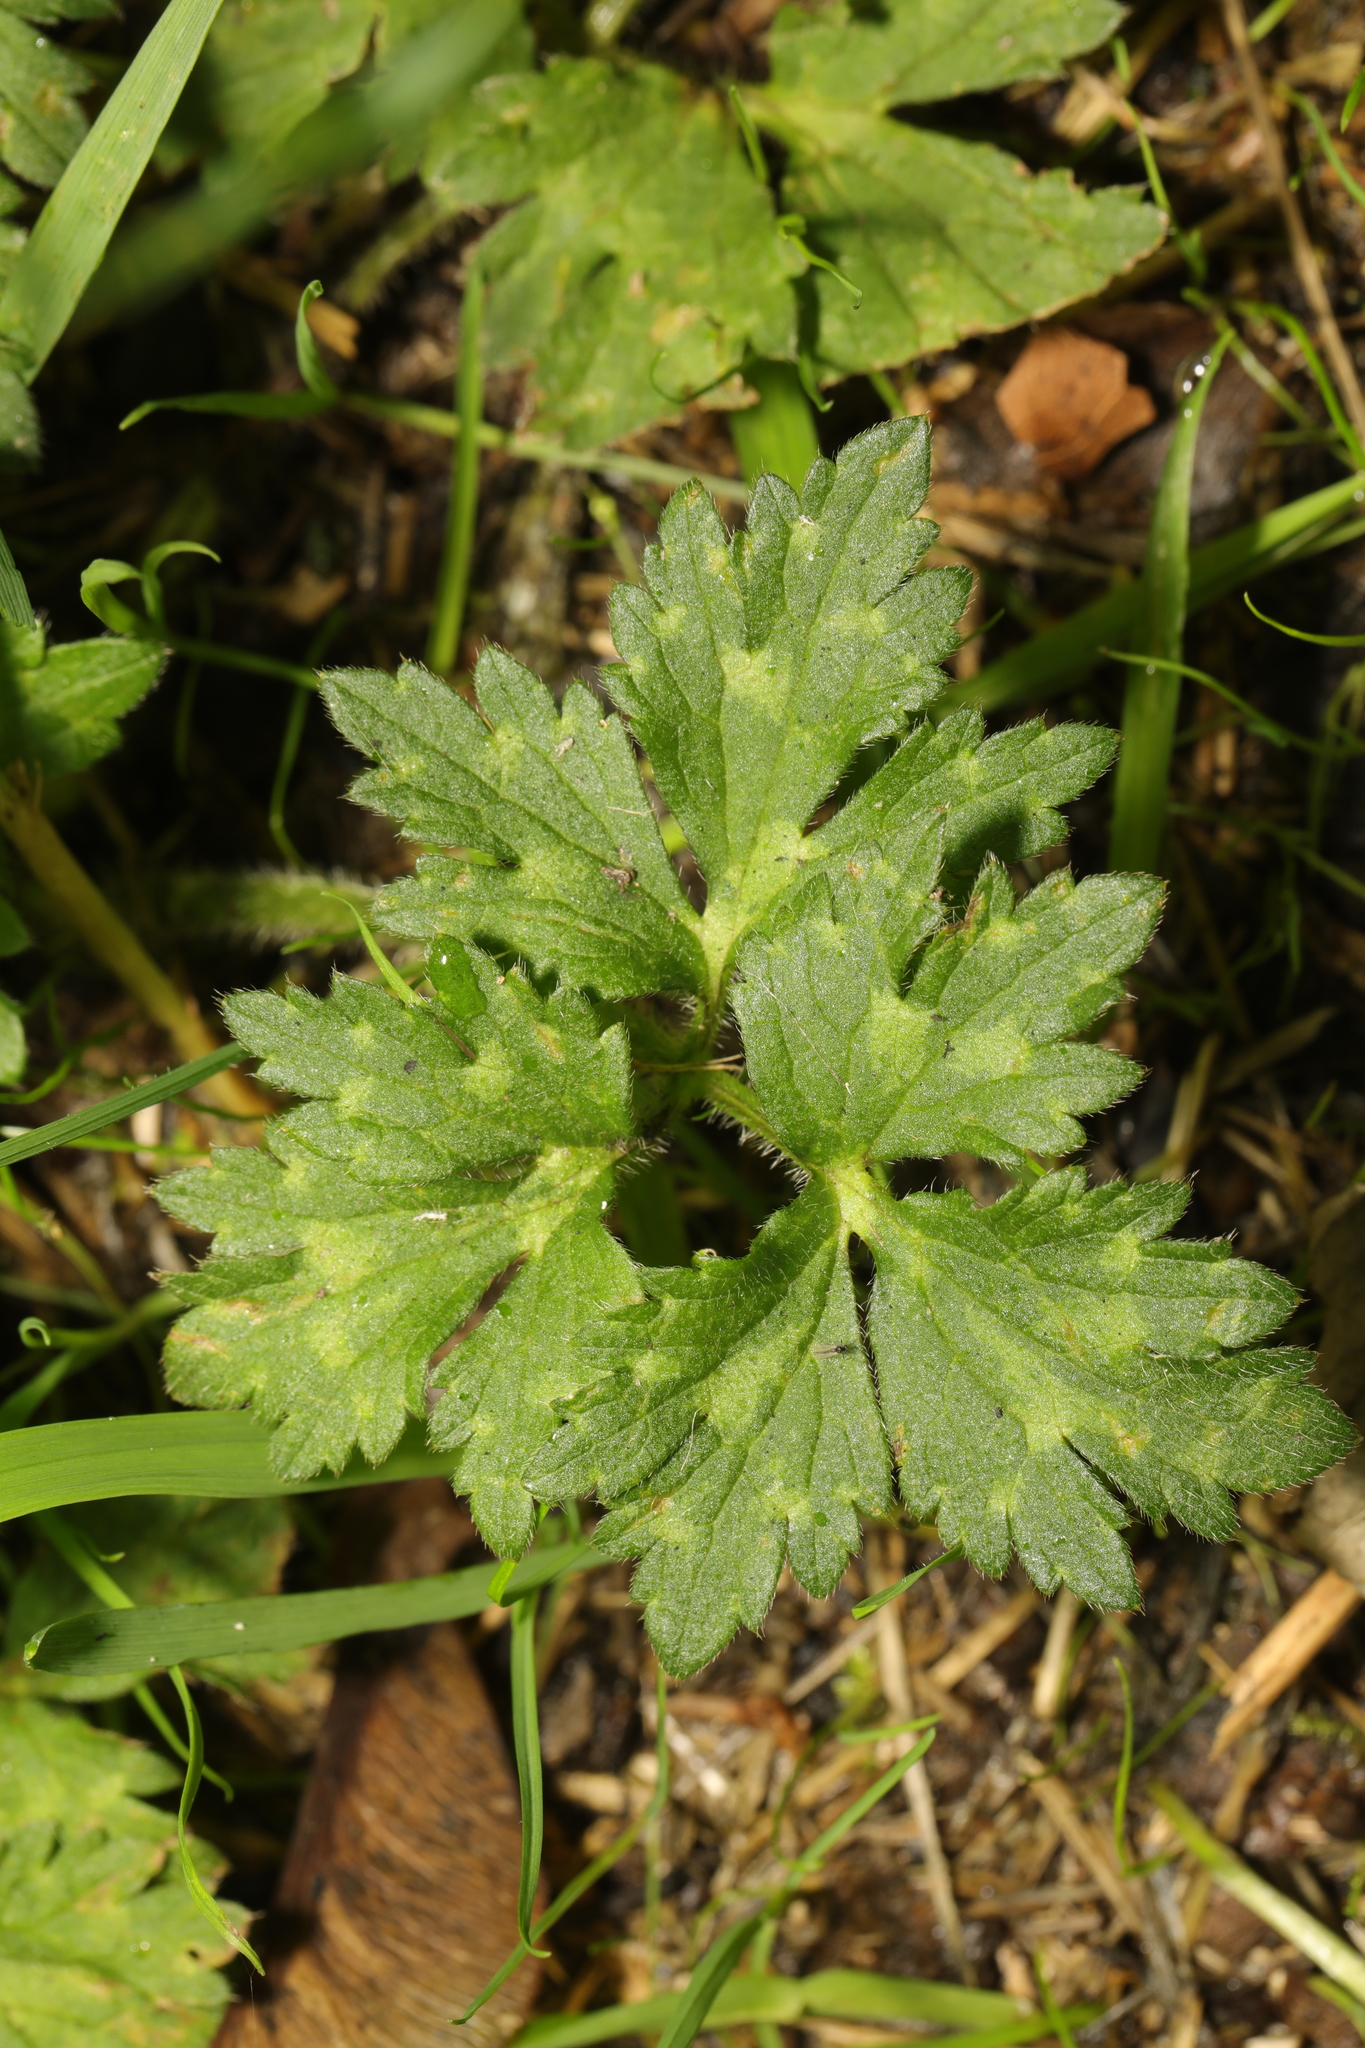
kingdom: Plantae
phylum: Tracheophyta
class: Magnoliopsida
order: Ranunculales
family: Ranunculaceae
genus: Ranunculus
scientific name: Ranunculus repens
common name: Creeping buttercup
